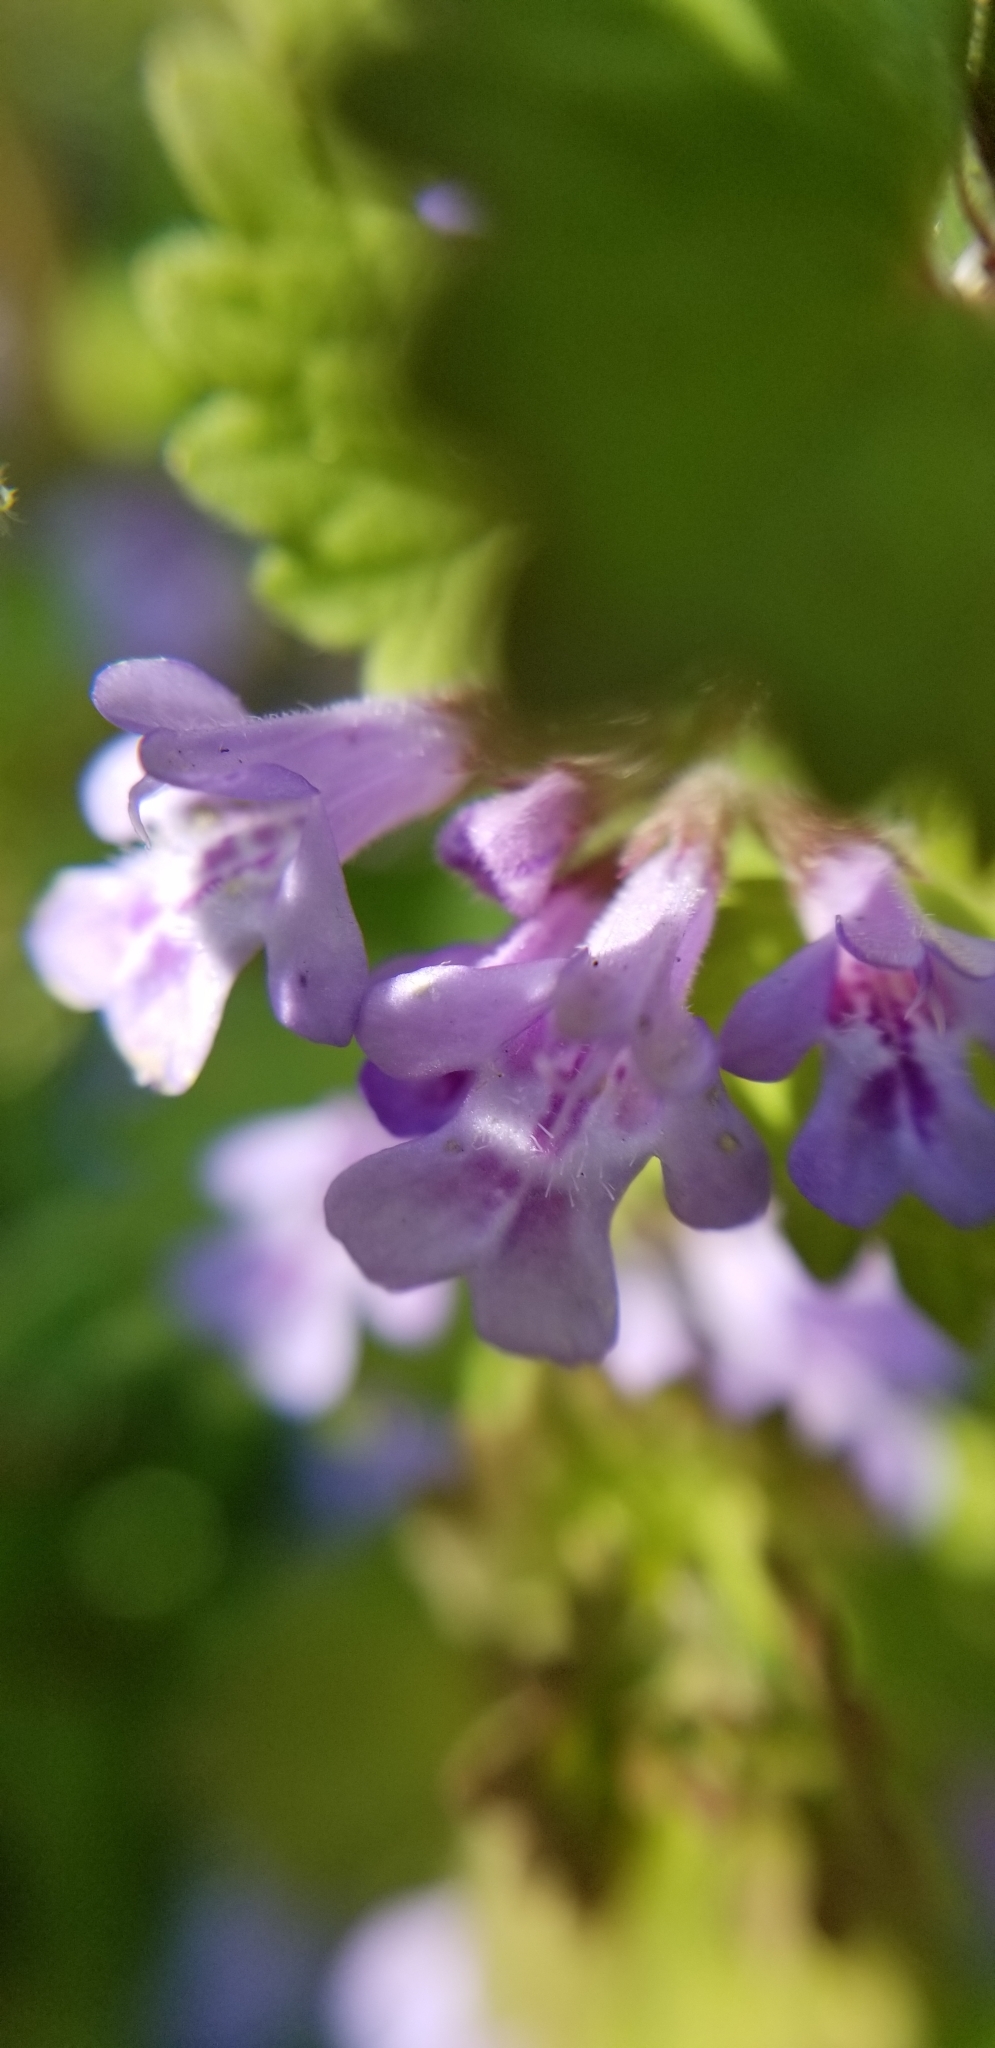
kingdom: Plantae
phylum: Tracheophyta
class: Magnoliopsida
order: Lamiales
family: Lamiaceae
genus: Glechoma
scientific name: Glechoma hederacea
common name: Ground ivy
